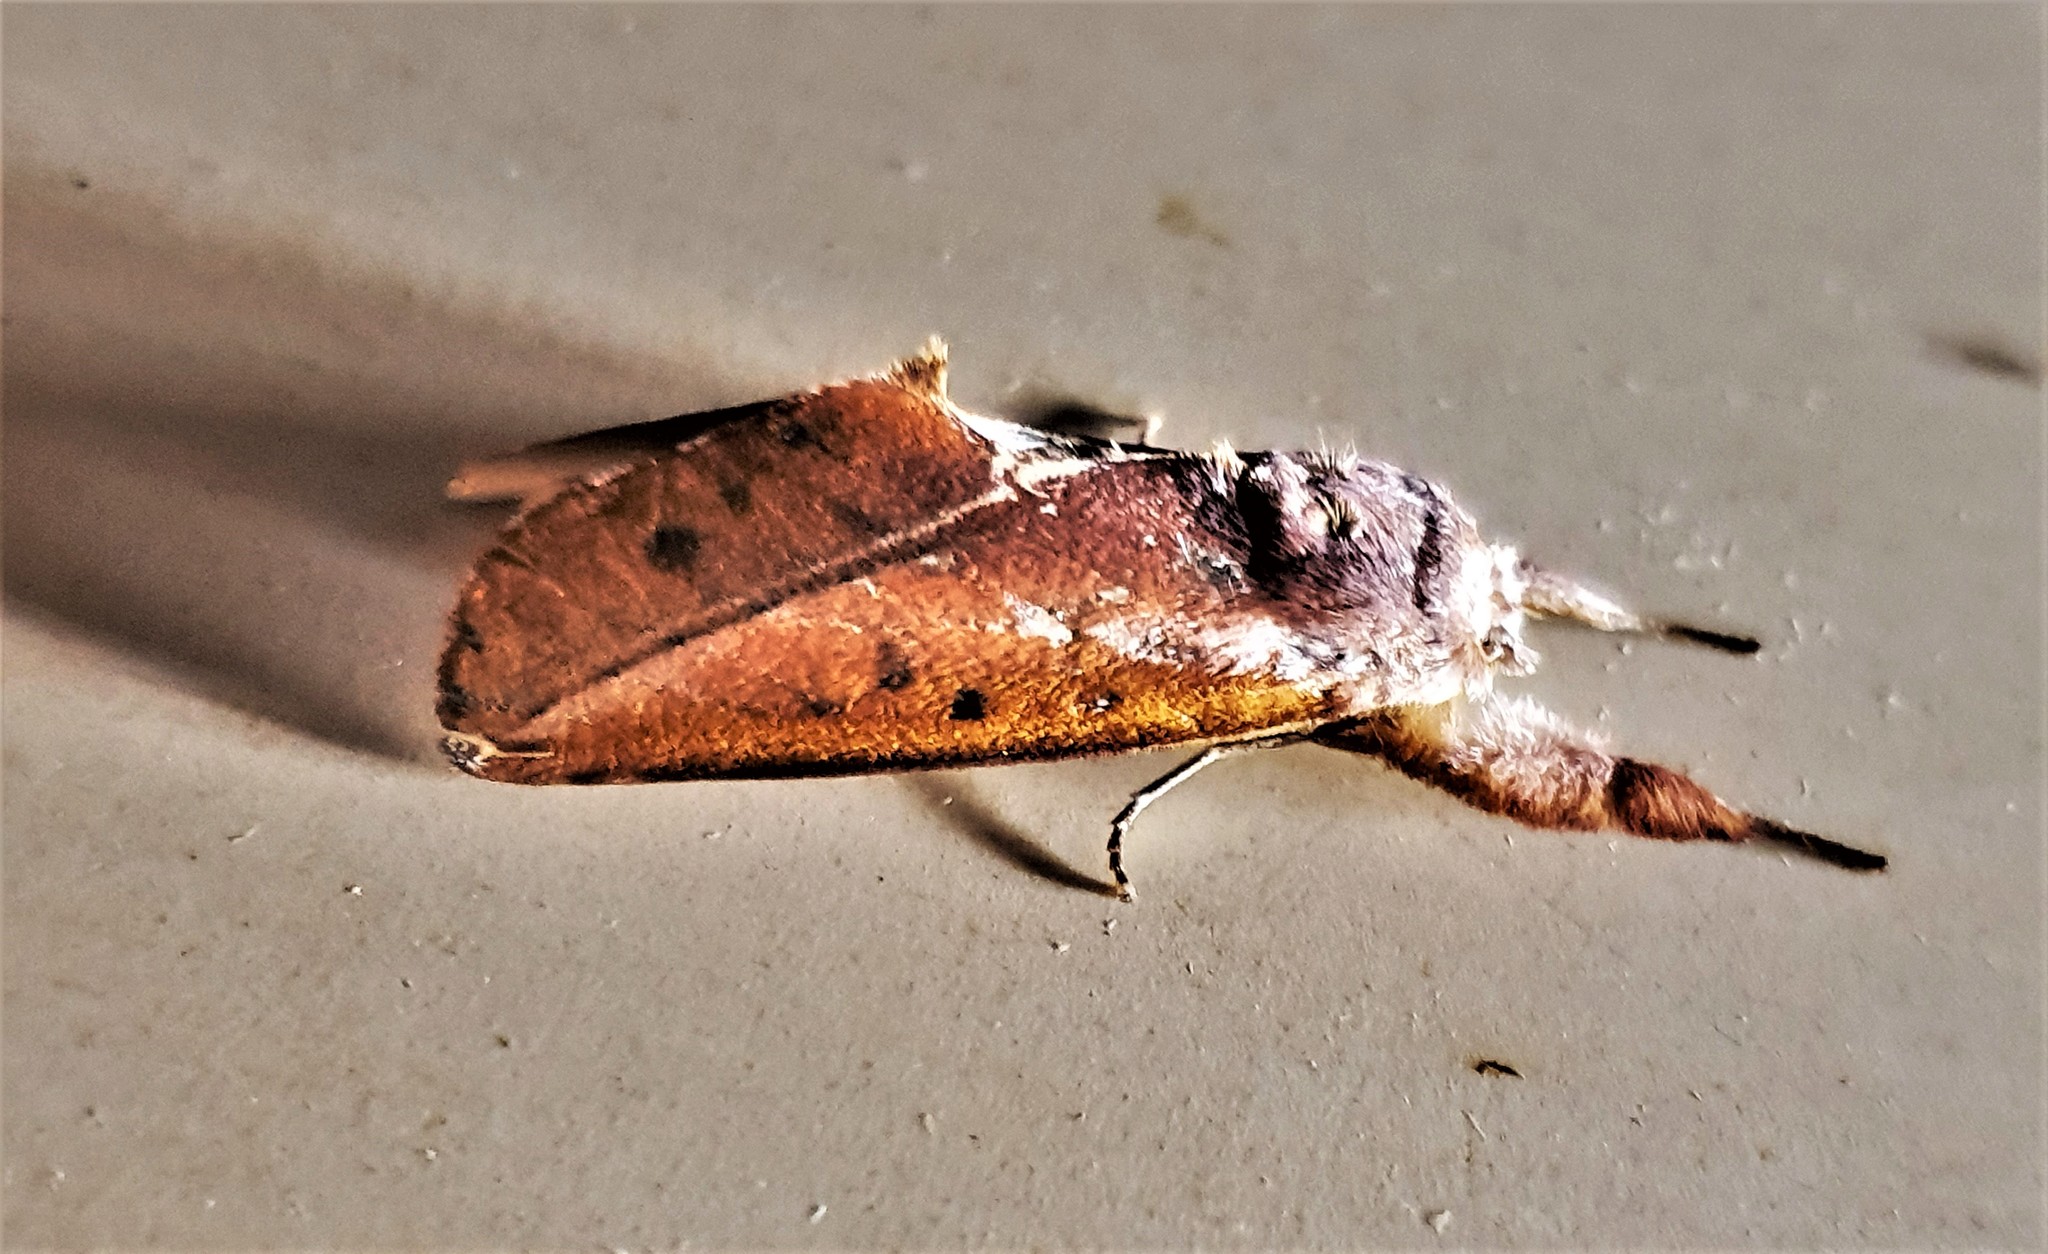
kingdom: Animalia
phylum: Arthropoda
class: Insecta
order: Lepidoptera
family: Notodontidae
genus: Hemiceras
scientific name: Hemiceras draudti
